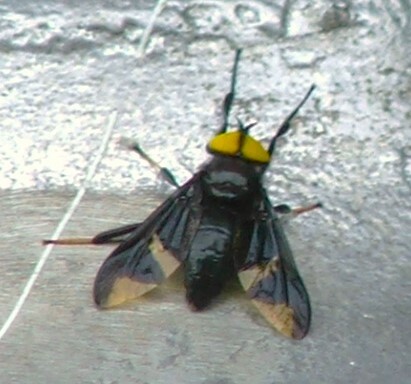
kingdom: Animalia
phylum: Arthropoda
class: Insecta
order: Diptera
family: Tabanidae
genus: Thriambeutes
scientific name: Thriambeutes v-album
